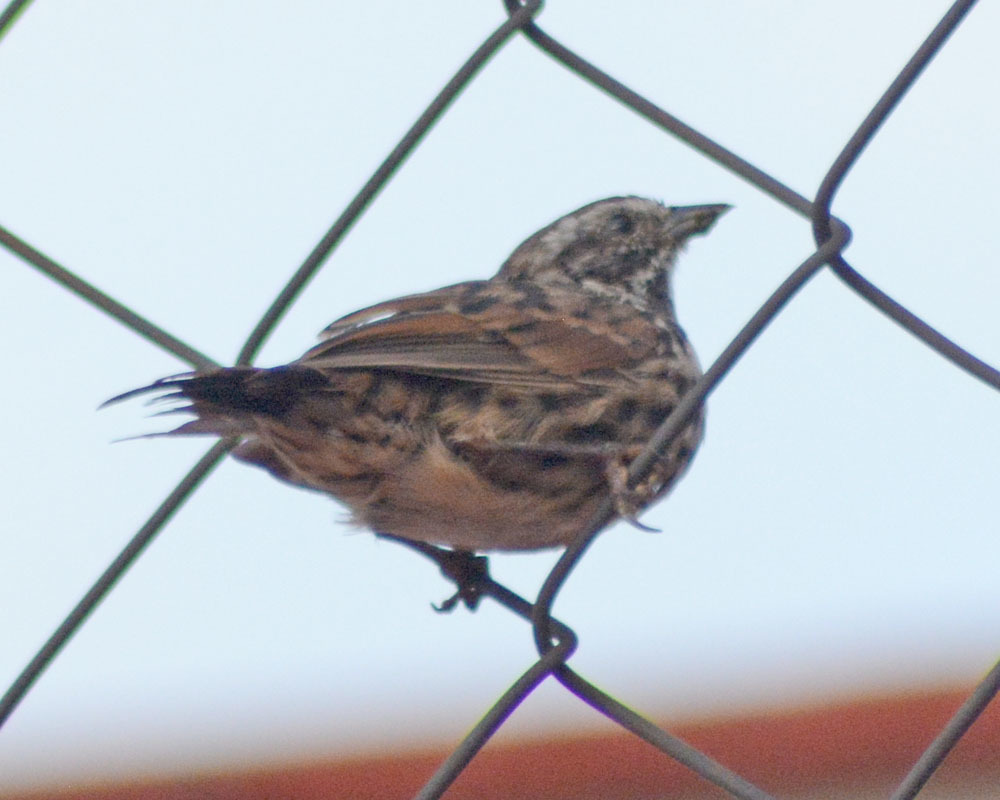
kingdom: Animalia
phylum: Chordata
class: Aves
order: Passeriformes
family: Passerellidae
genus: Melospiza
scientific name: Melospiza melodia
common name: Song sparrow
